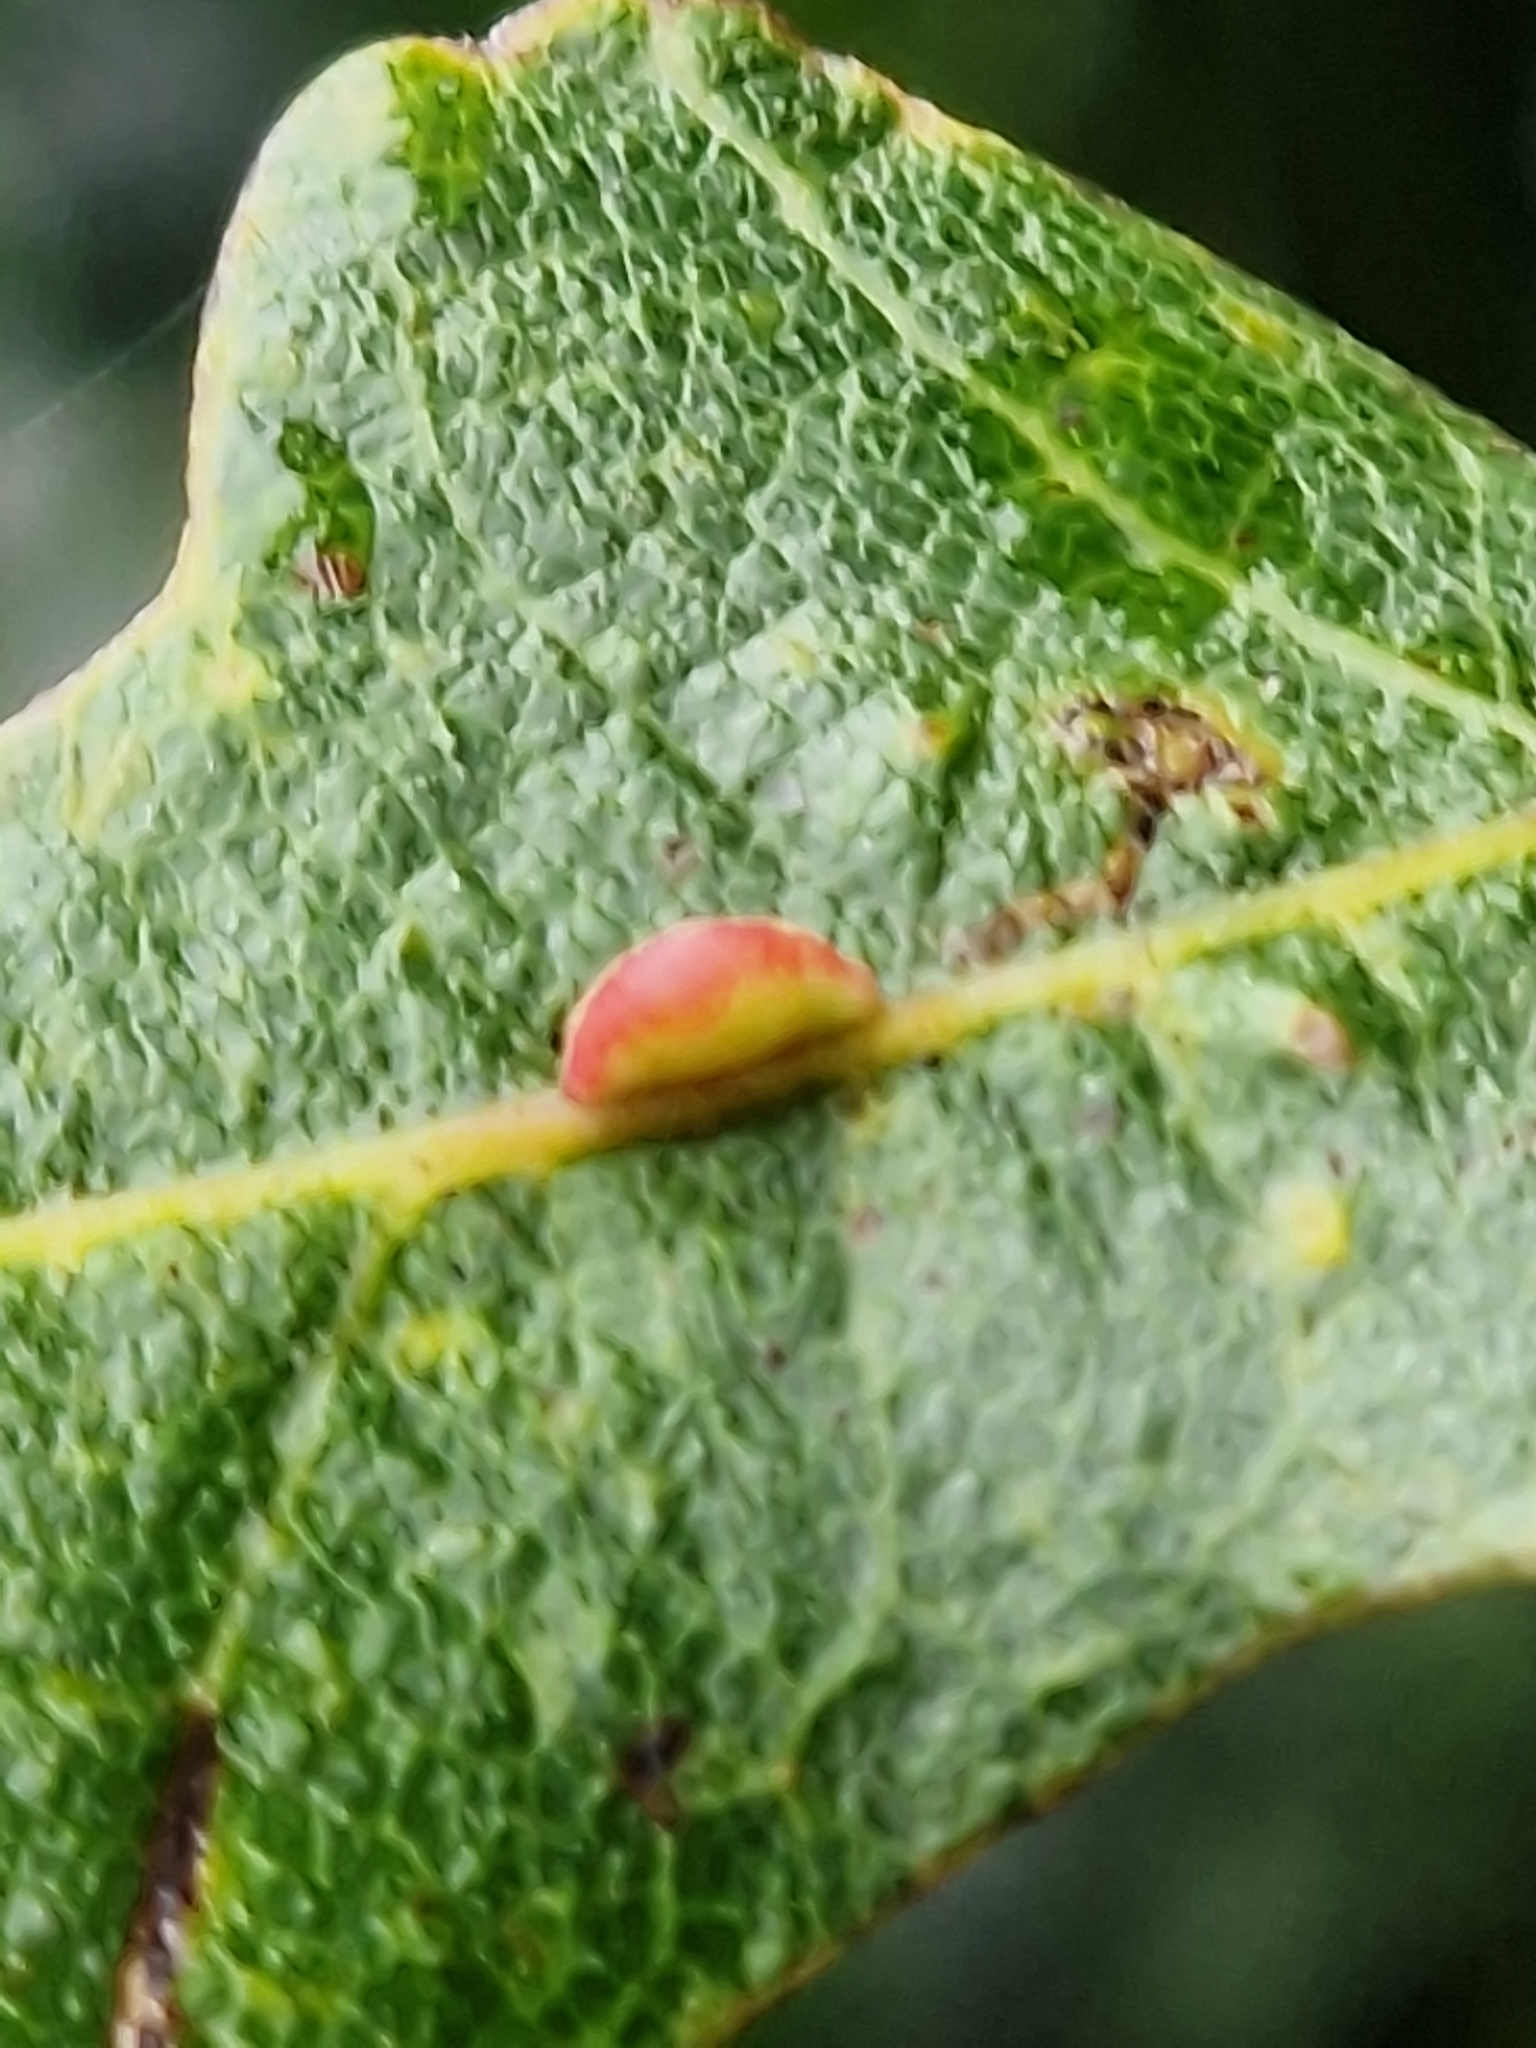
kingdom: Animalia
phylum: Arthropoda
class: Insecta
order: Hymenoptera
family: Cynipidae
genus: Neuroterus
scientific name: Neuroterus saliens
